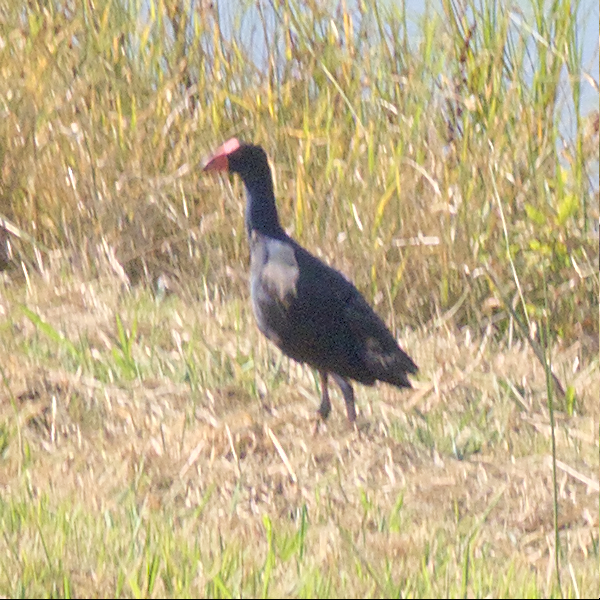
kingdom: Animalia
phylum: Chordata
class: Aves
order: Gruiformes
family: Rallidae
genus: Porphyrio
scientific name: Porphyrio melanotus
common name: Australasian swamphen
